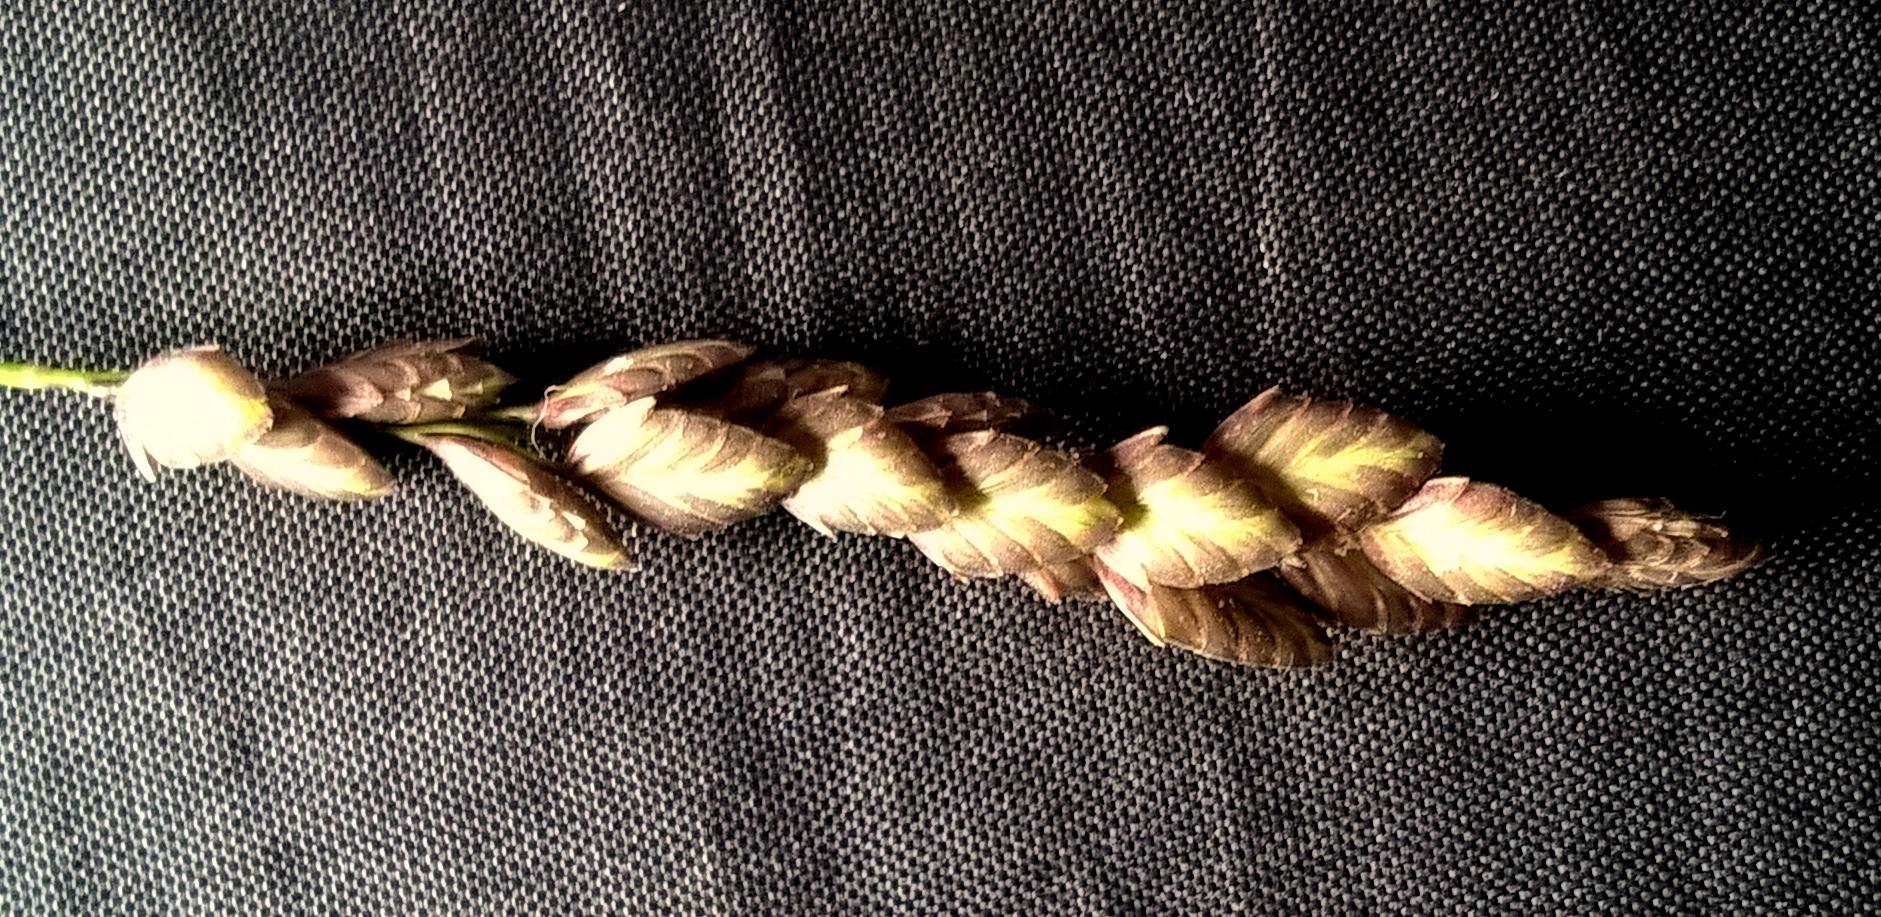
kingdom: Plantae
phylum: Tracheophyta
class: Liliopsida
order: Poales
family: Poaceae
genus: Eragrostis
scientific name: Eragrostis capensis
